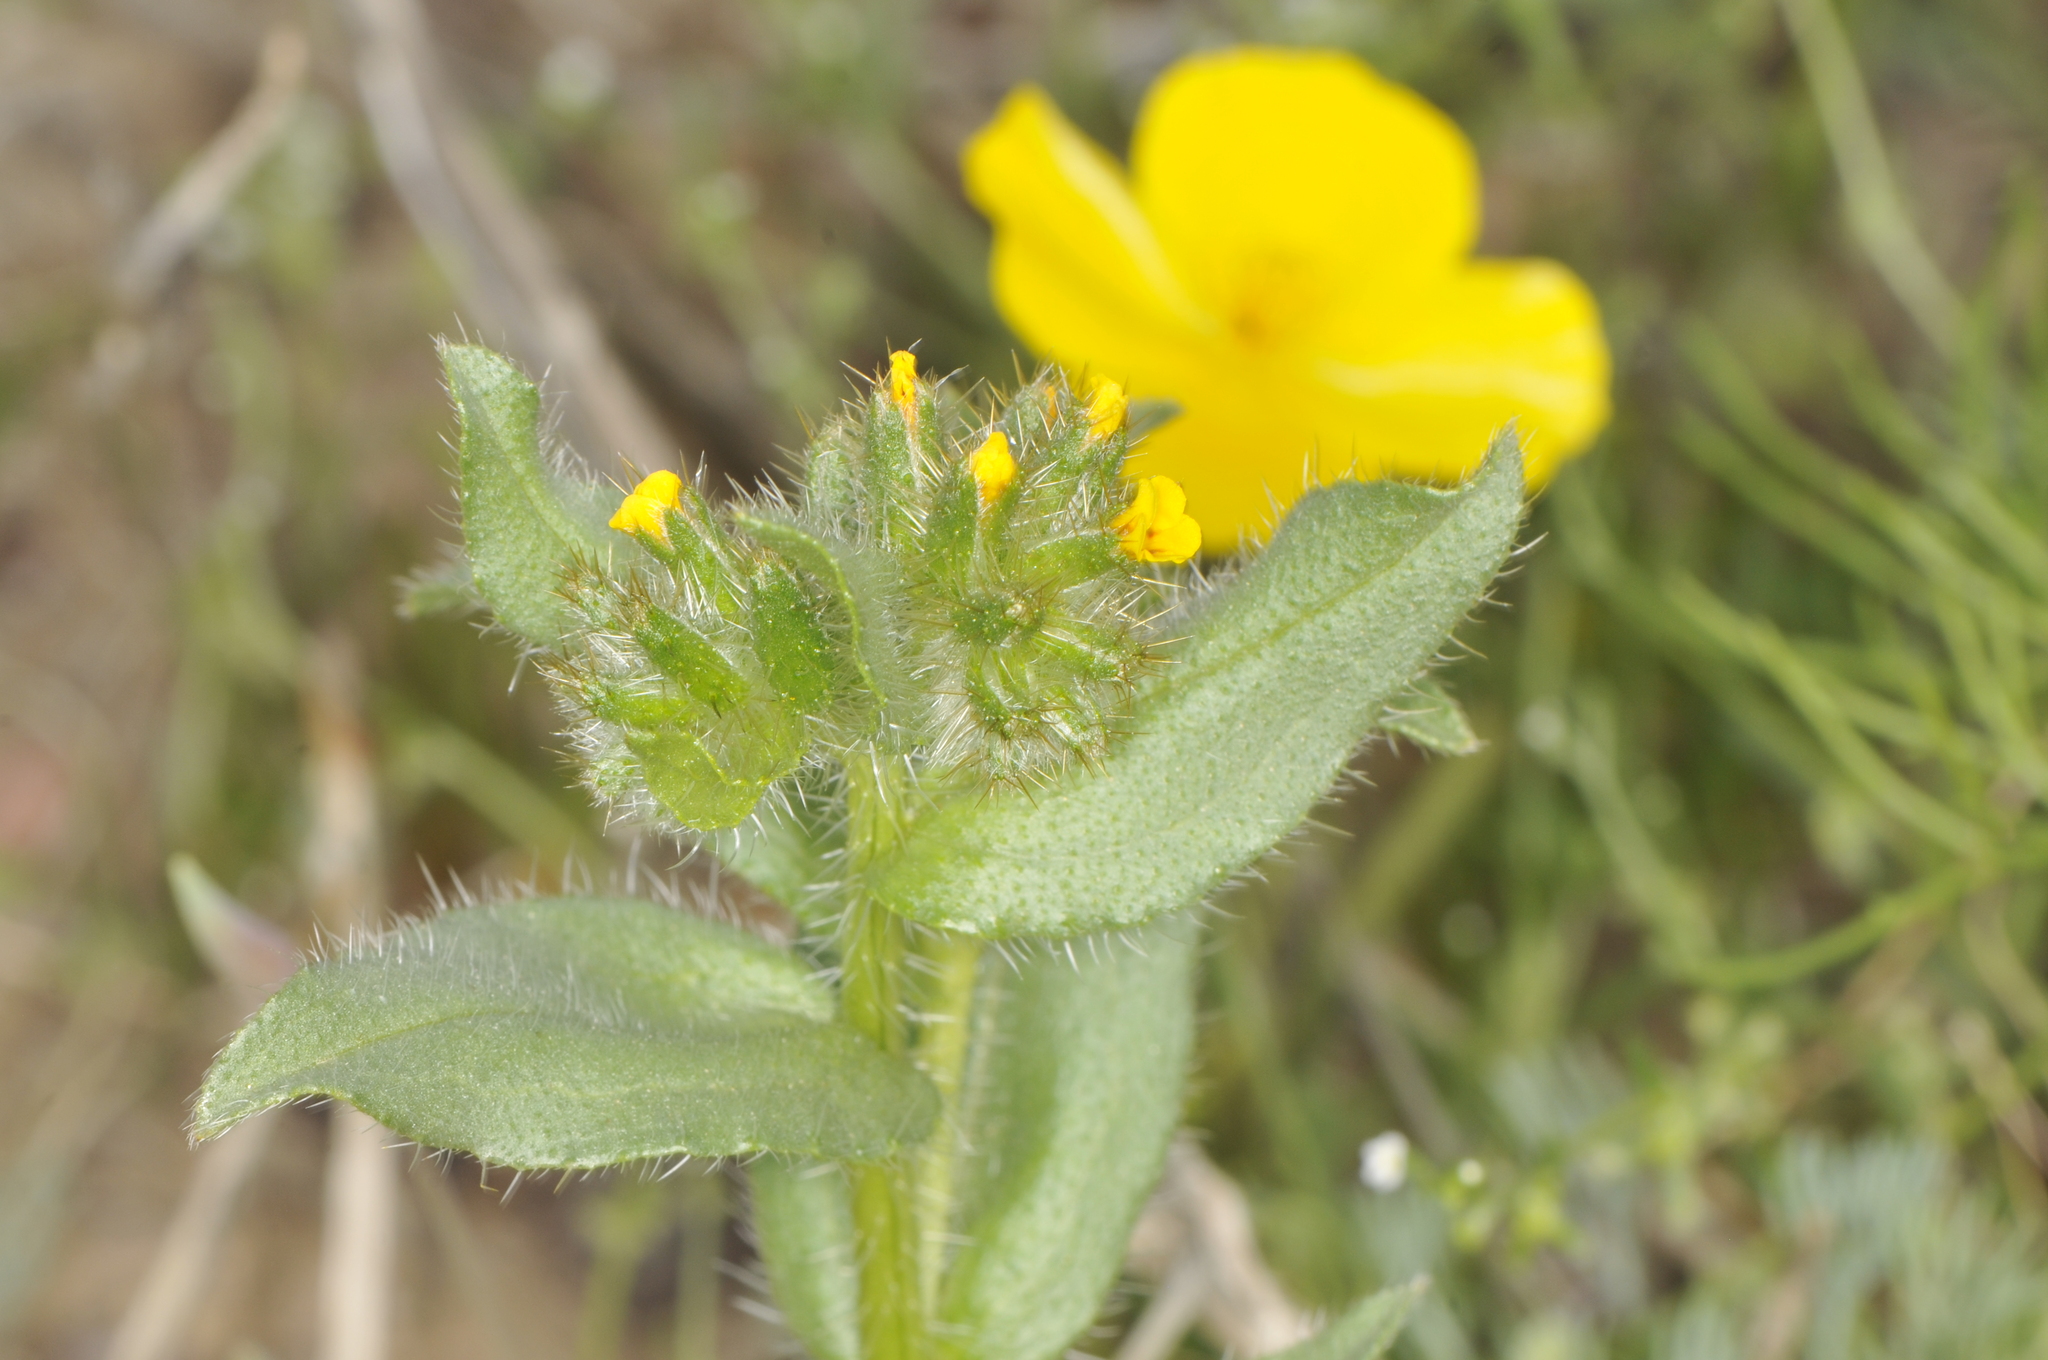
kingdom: Plantae
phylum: Tracheophyta
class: Magnoliopsida
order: Boraginales
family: Boraginaceae
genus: Amsinckia
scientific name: Amsinckia tessellata
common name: Tessellate fiddleneck
